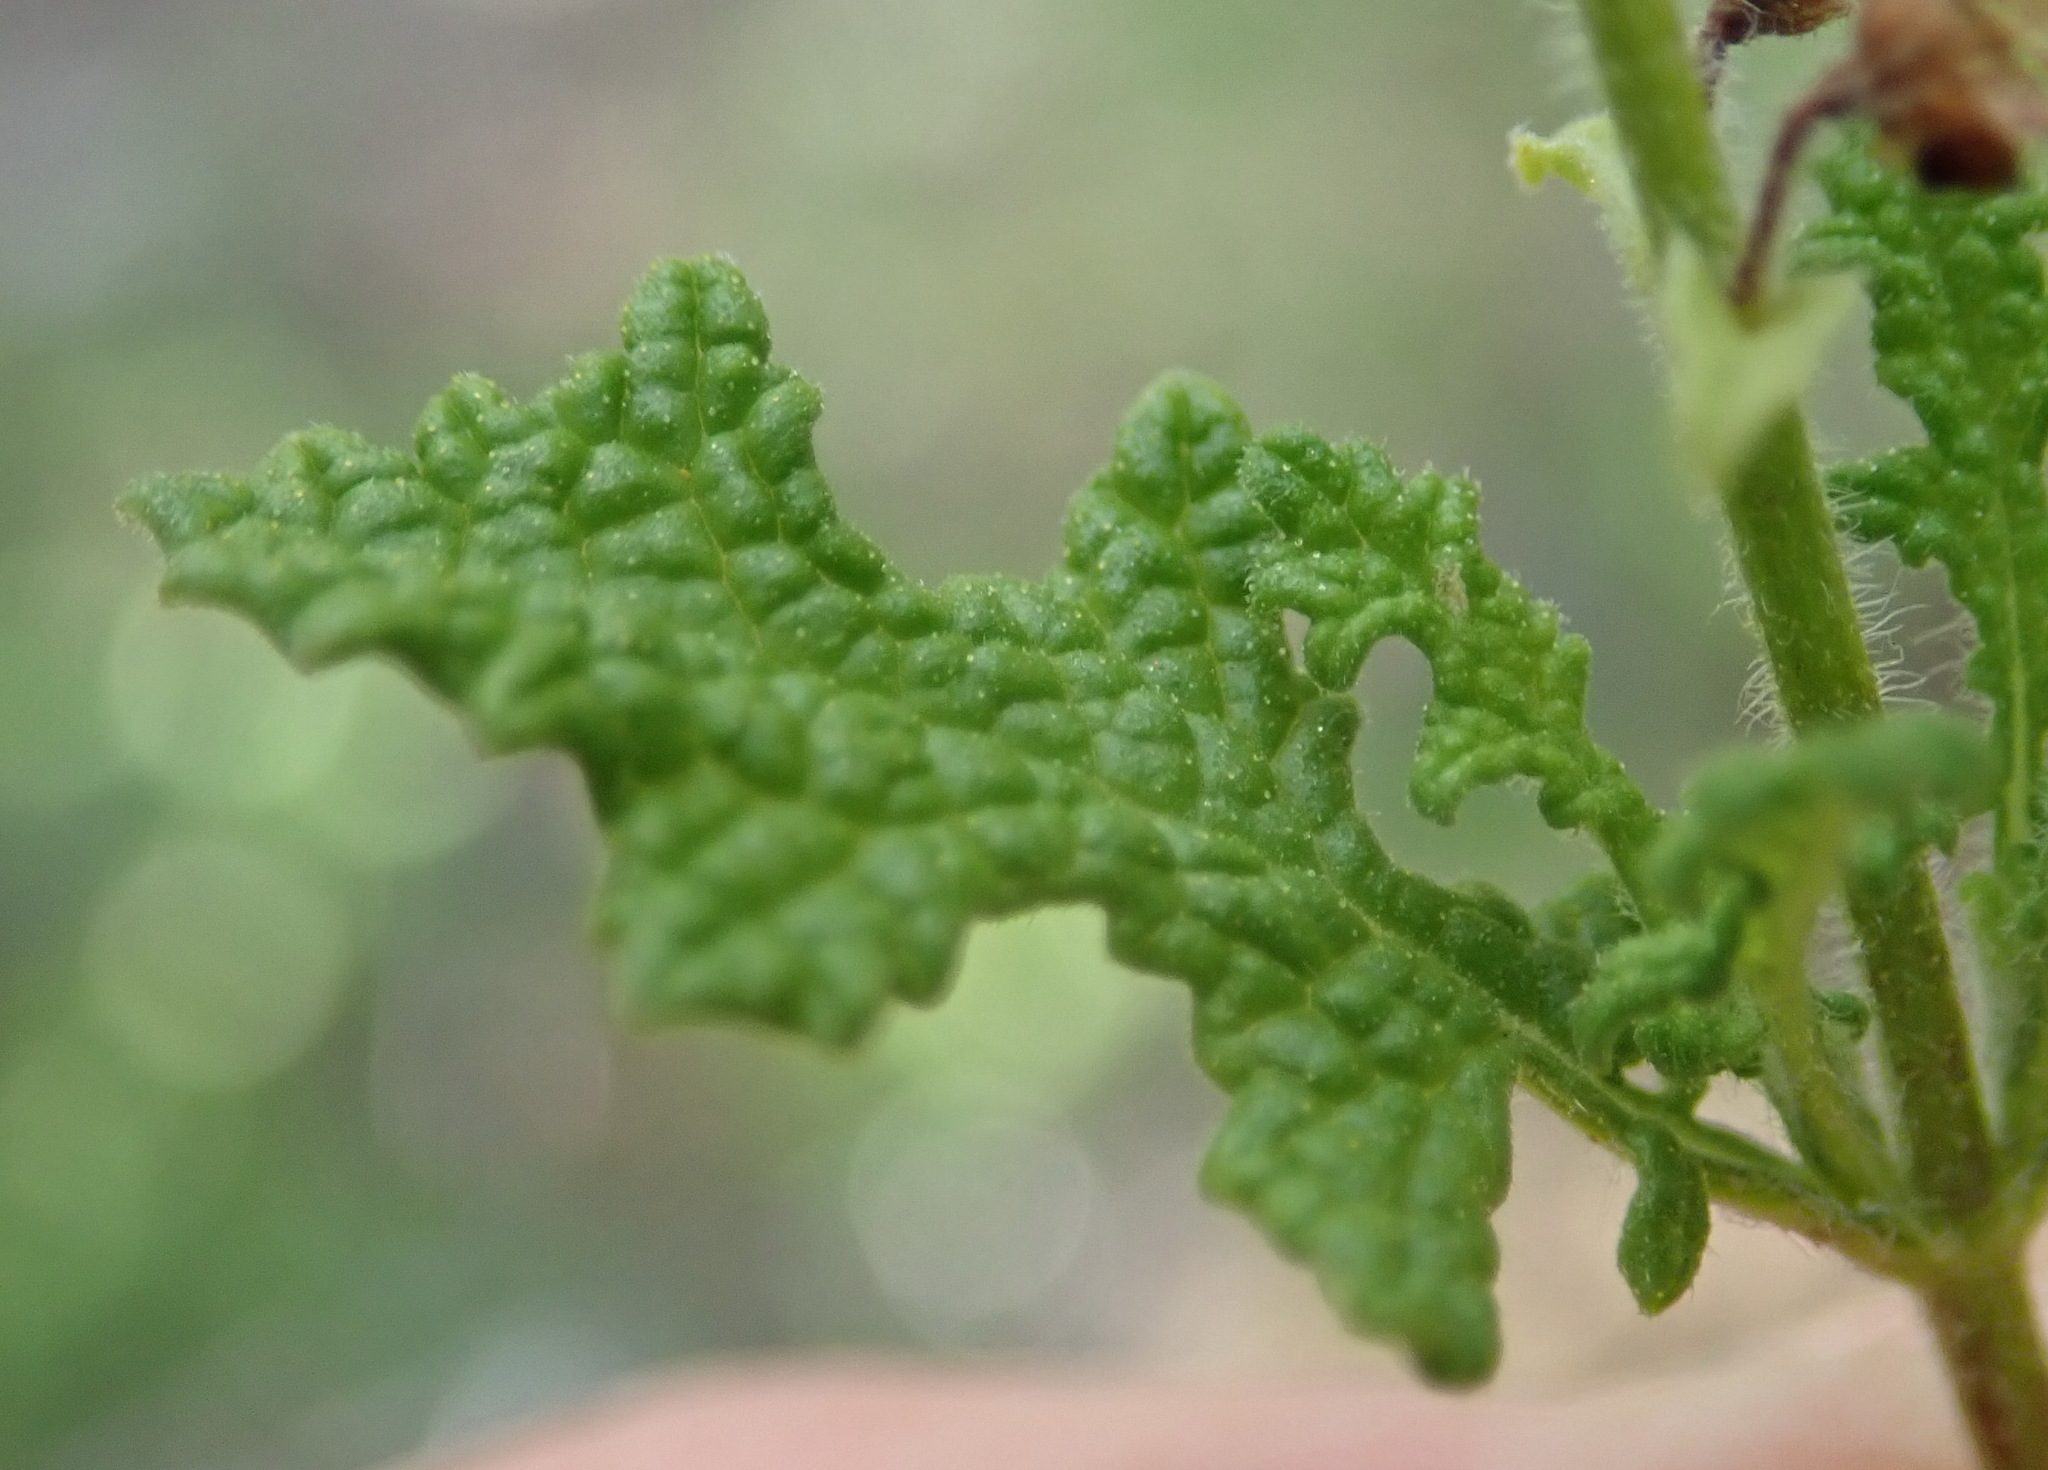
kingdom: Plantae
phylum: Tracheophyta
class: Magnoliopsida
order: Lamiales
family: Lamiaceae
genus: Salvia
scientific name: Salvia namaensis
